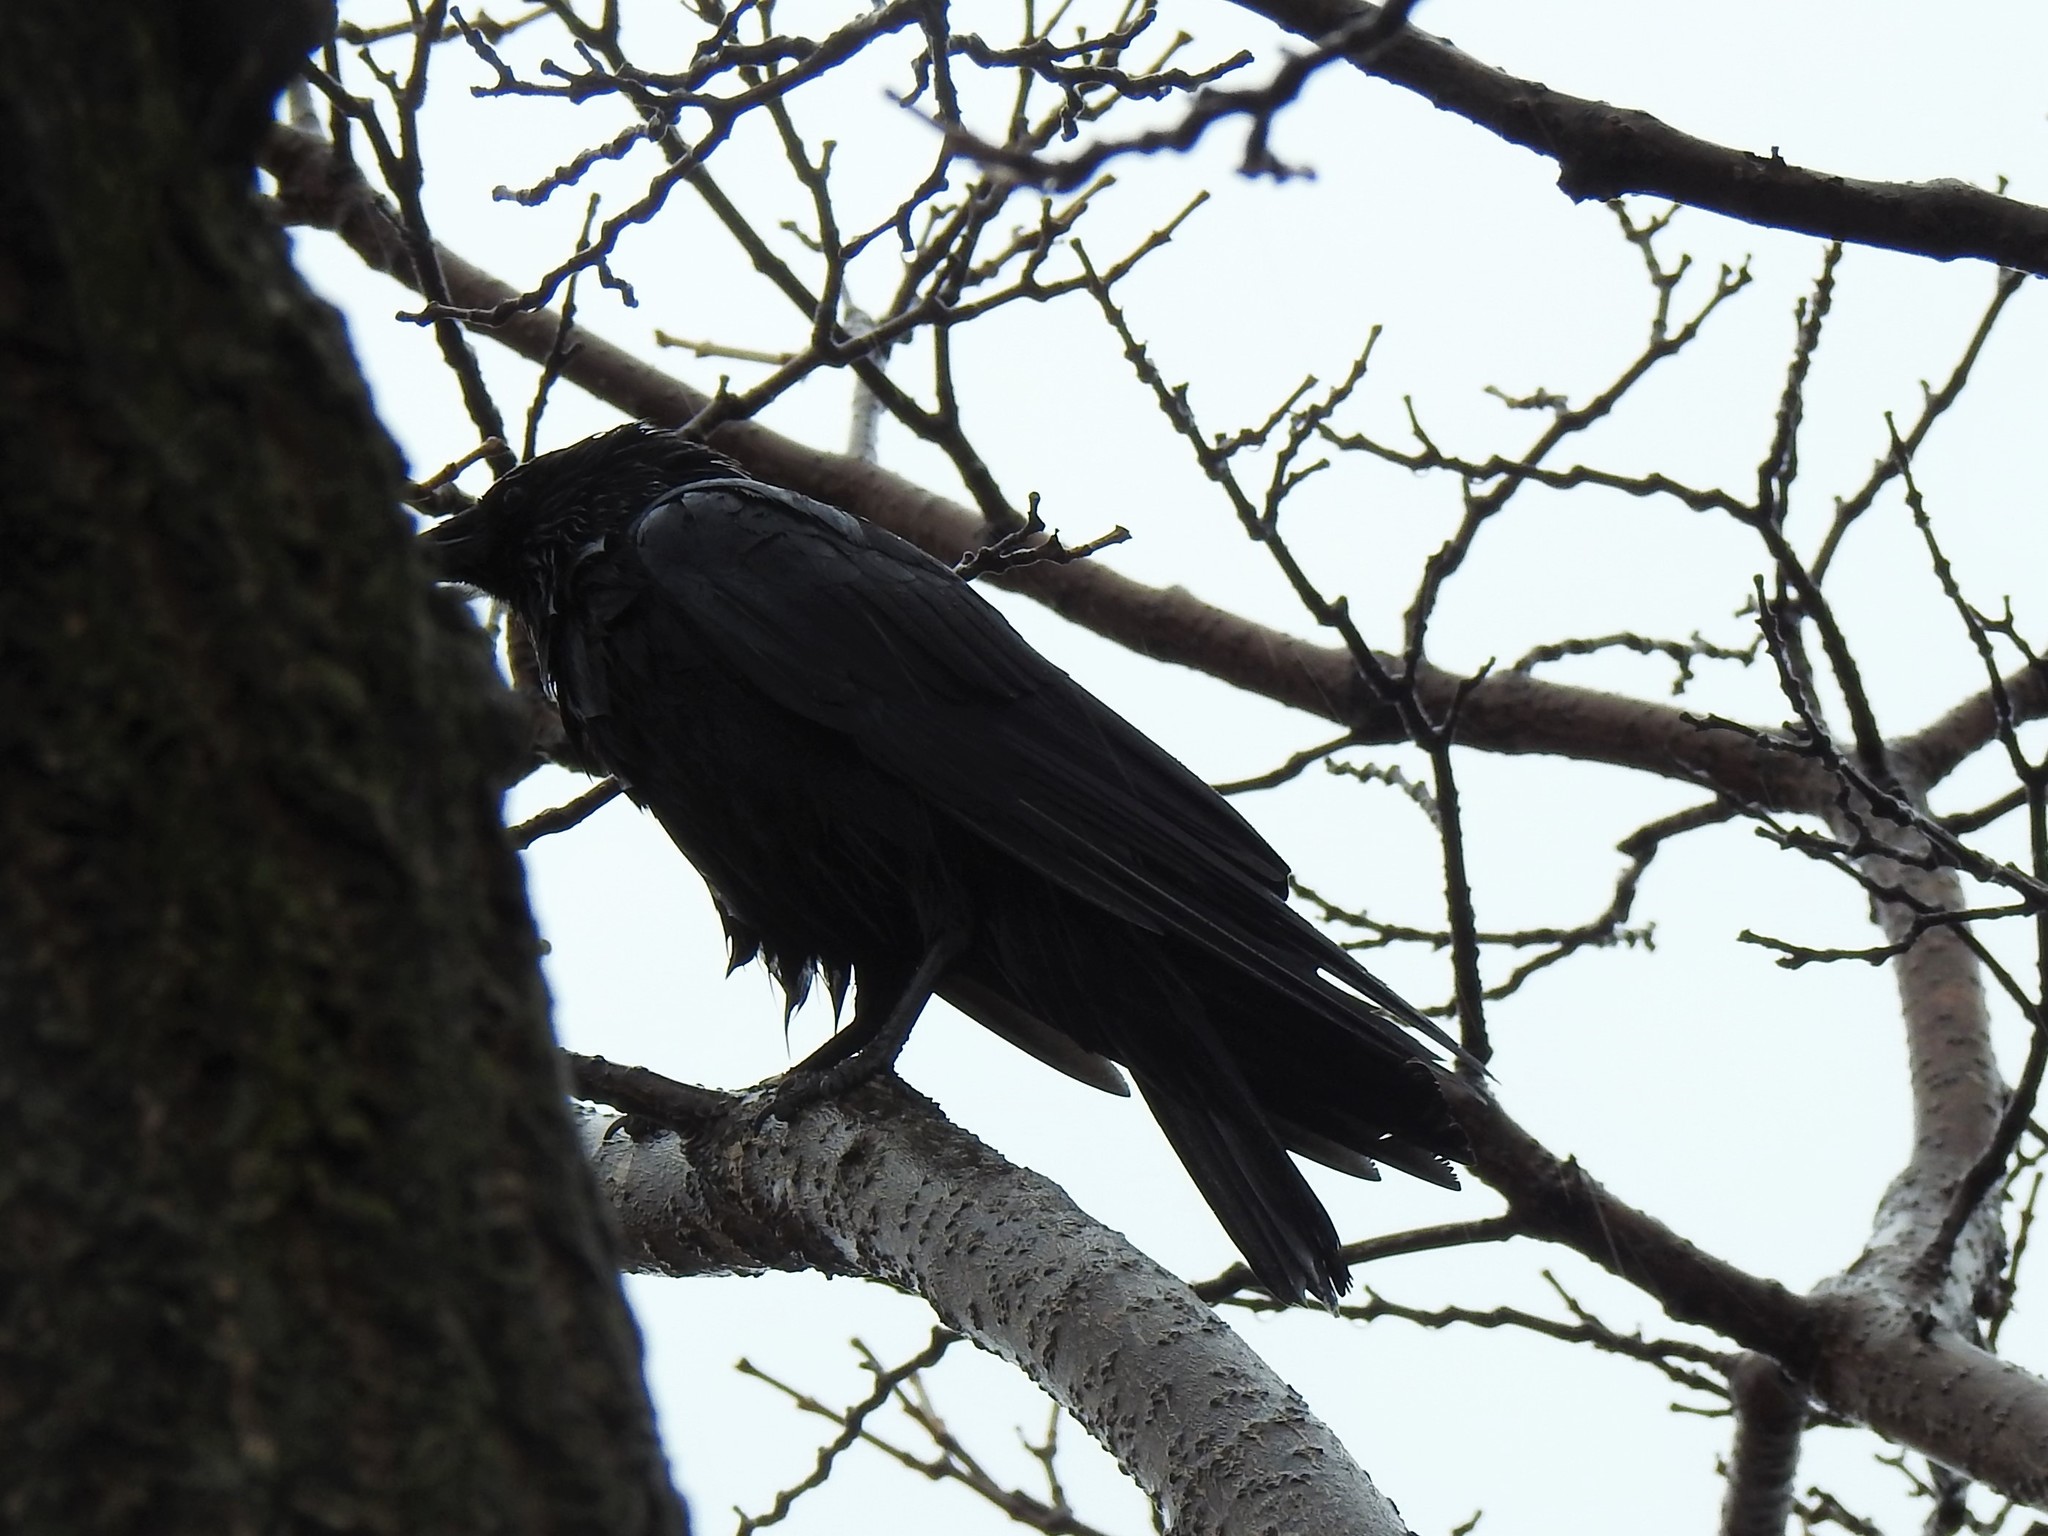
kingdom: Animalia
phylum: Chordata
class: Aves
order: Passeriformes
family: Corvidae
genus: Corvus
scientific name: Corvus brachyrhynchos
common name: American crow
